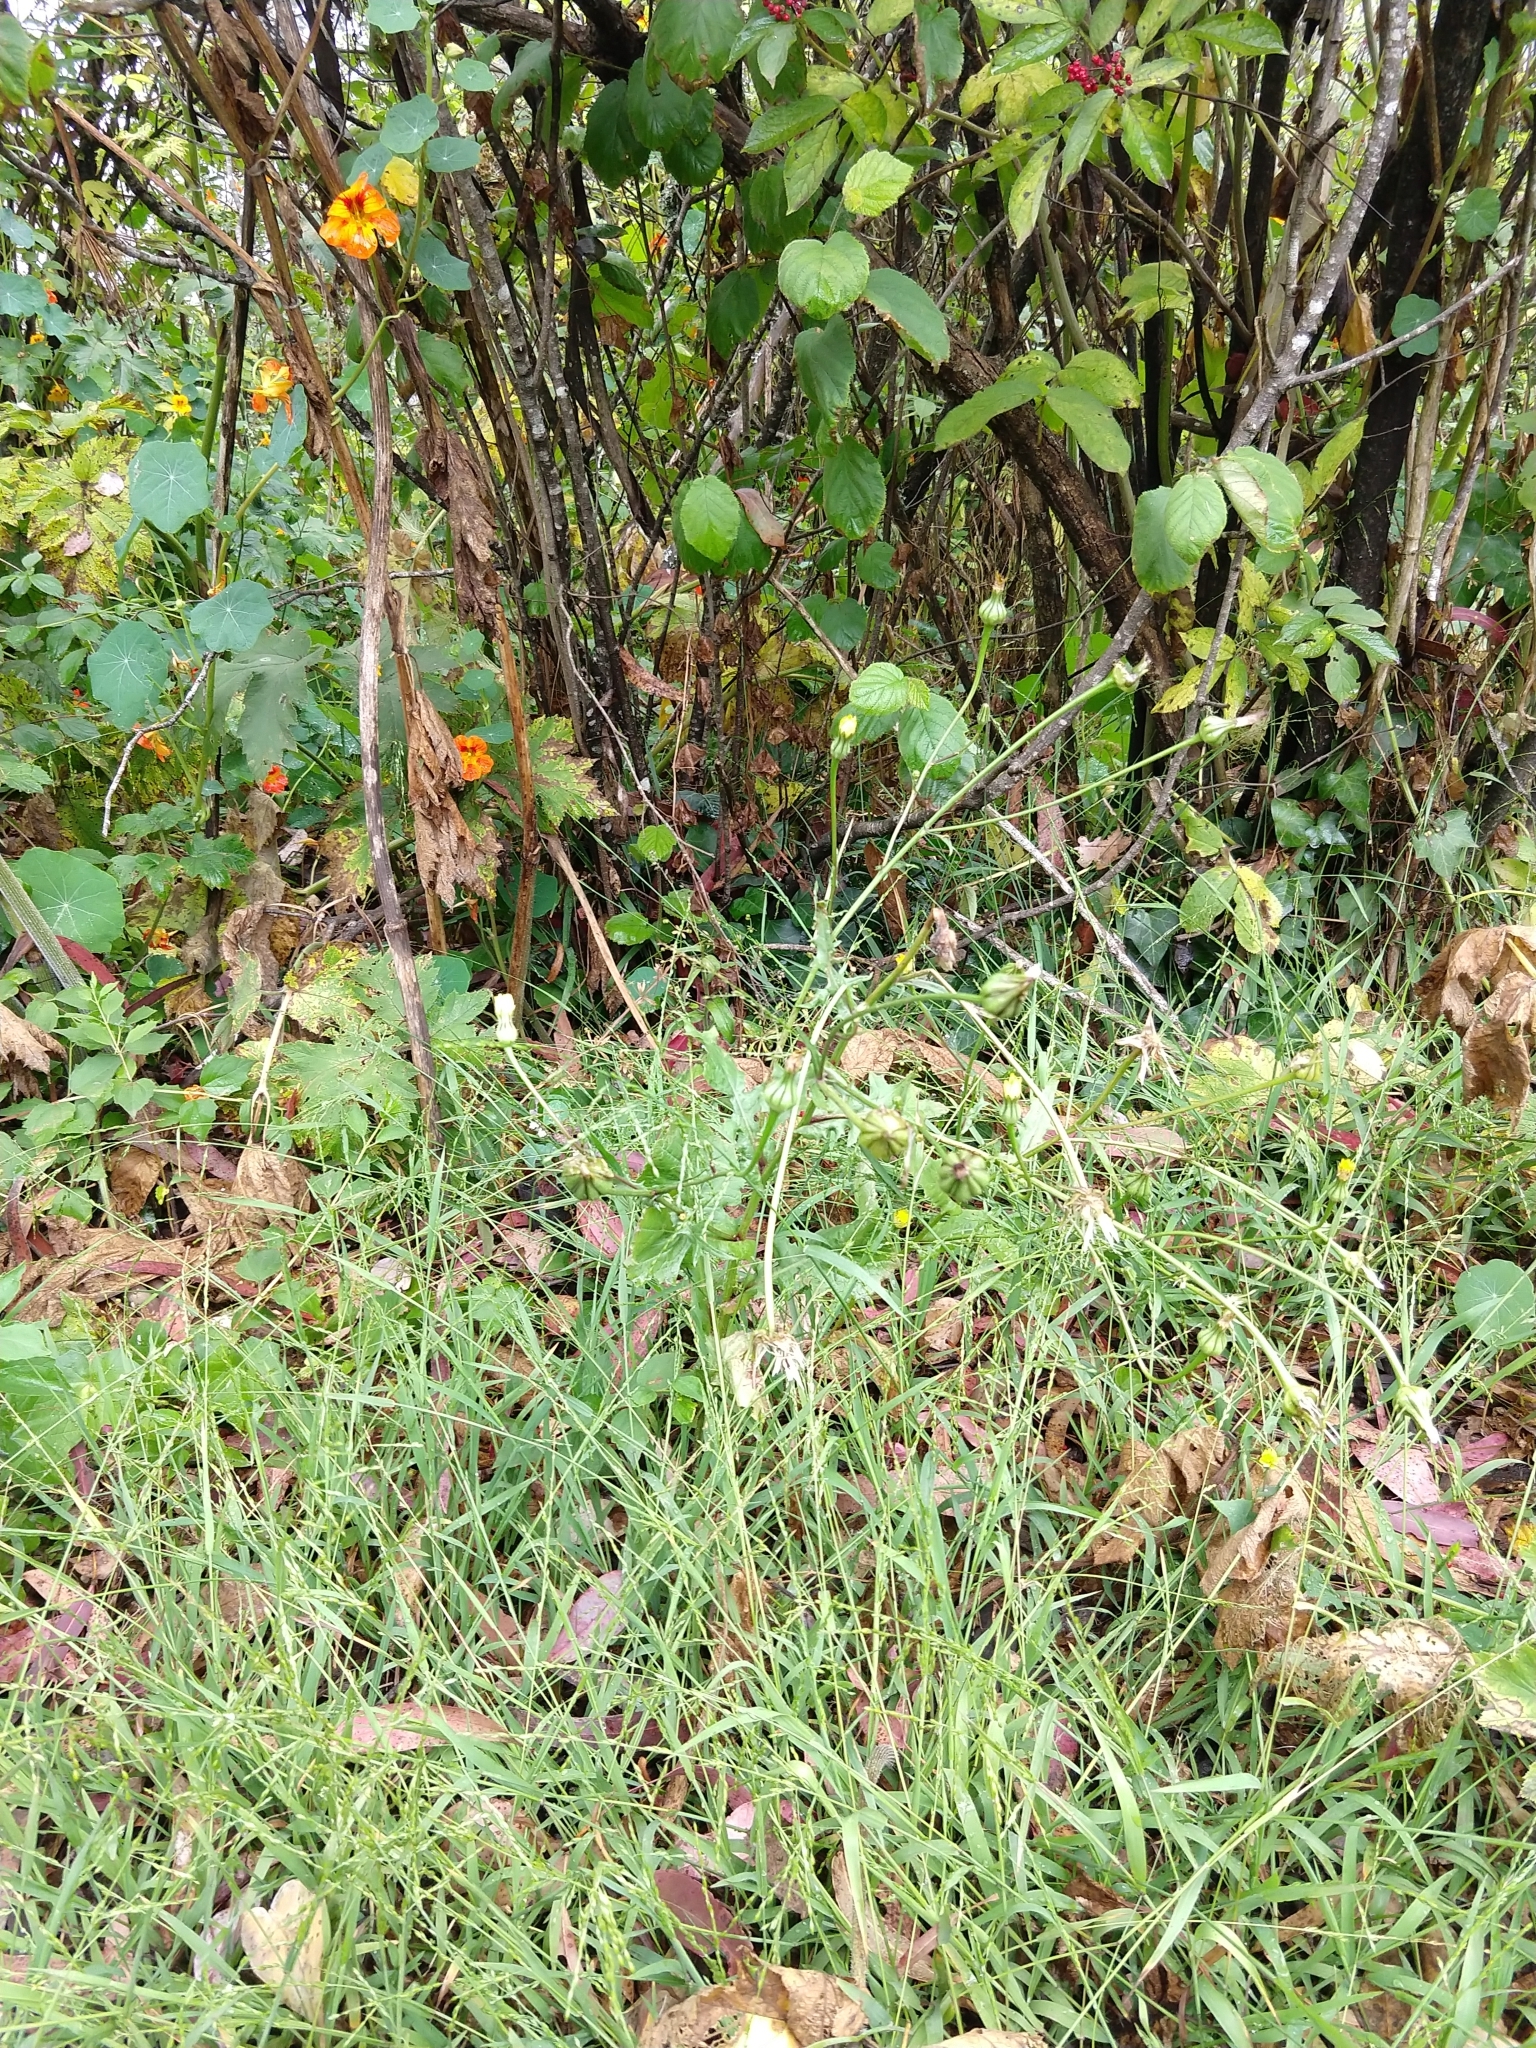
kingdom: Plantae
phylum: Tracheophyta
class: Magnoliopsida
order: Asterales
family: Asteraceae
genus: Urospermum
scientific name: Urospermum picroides
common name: False hawkbit
